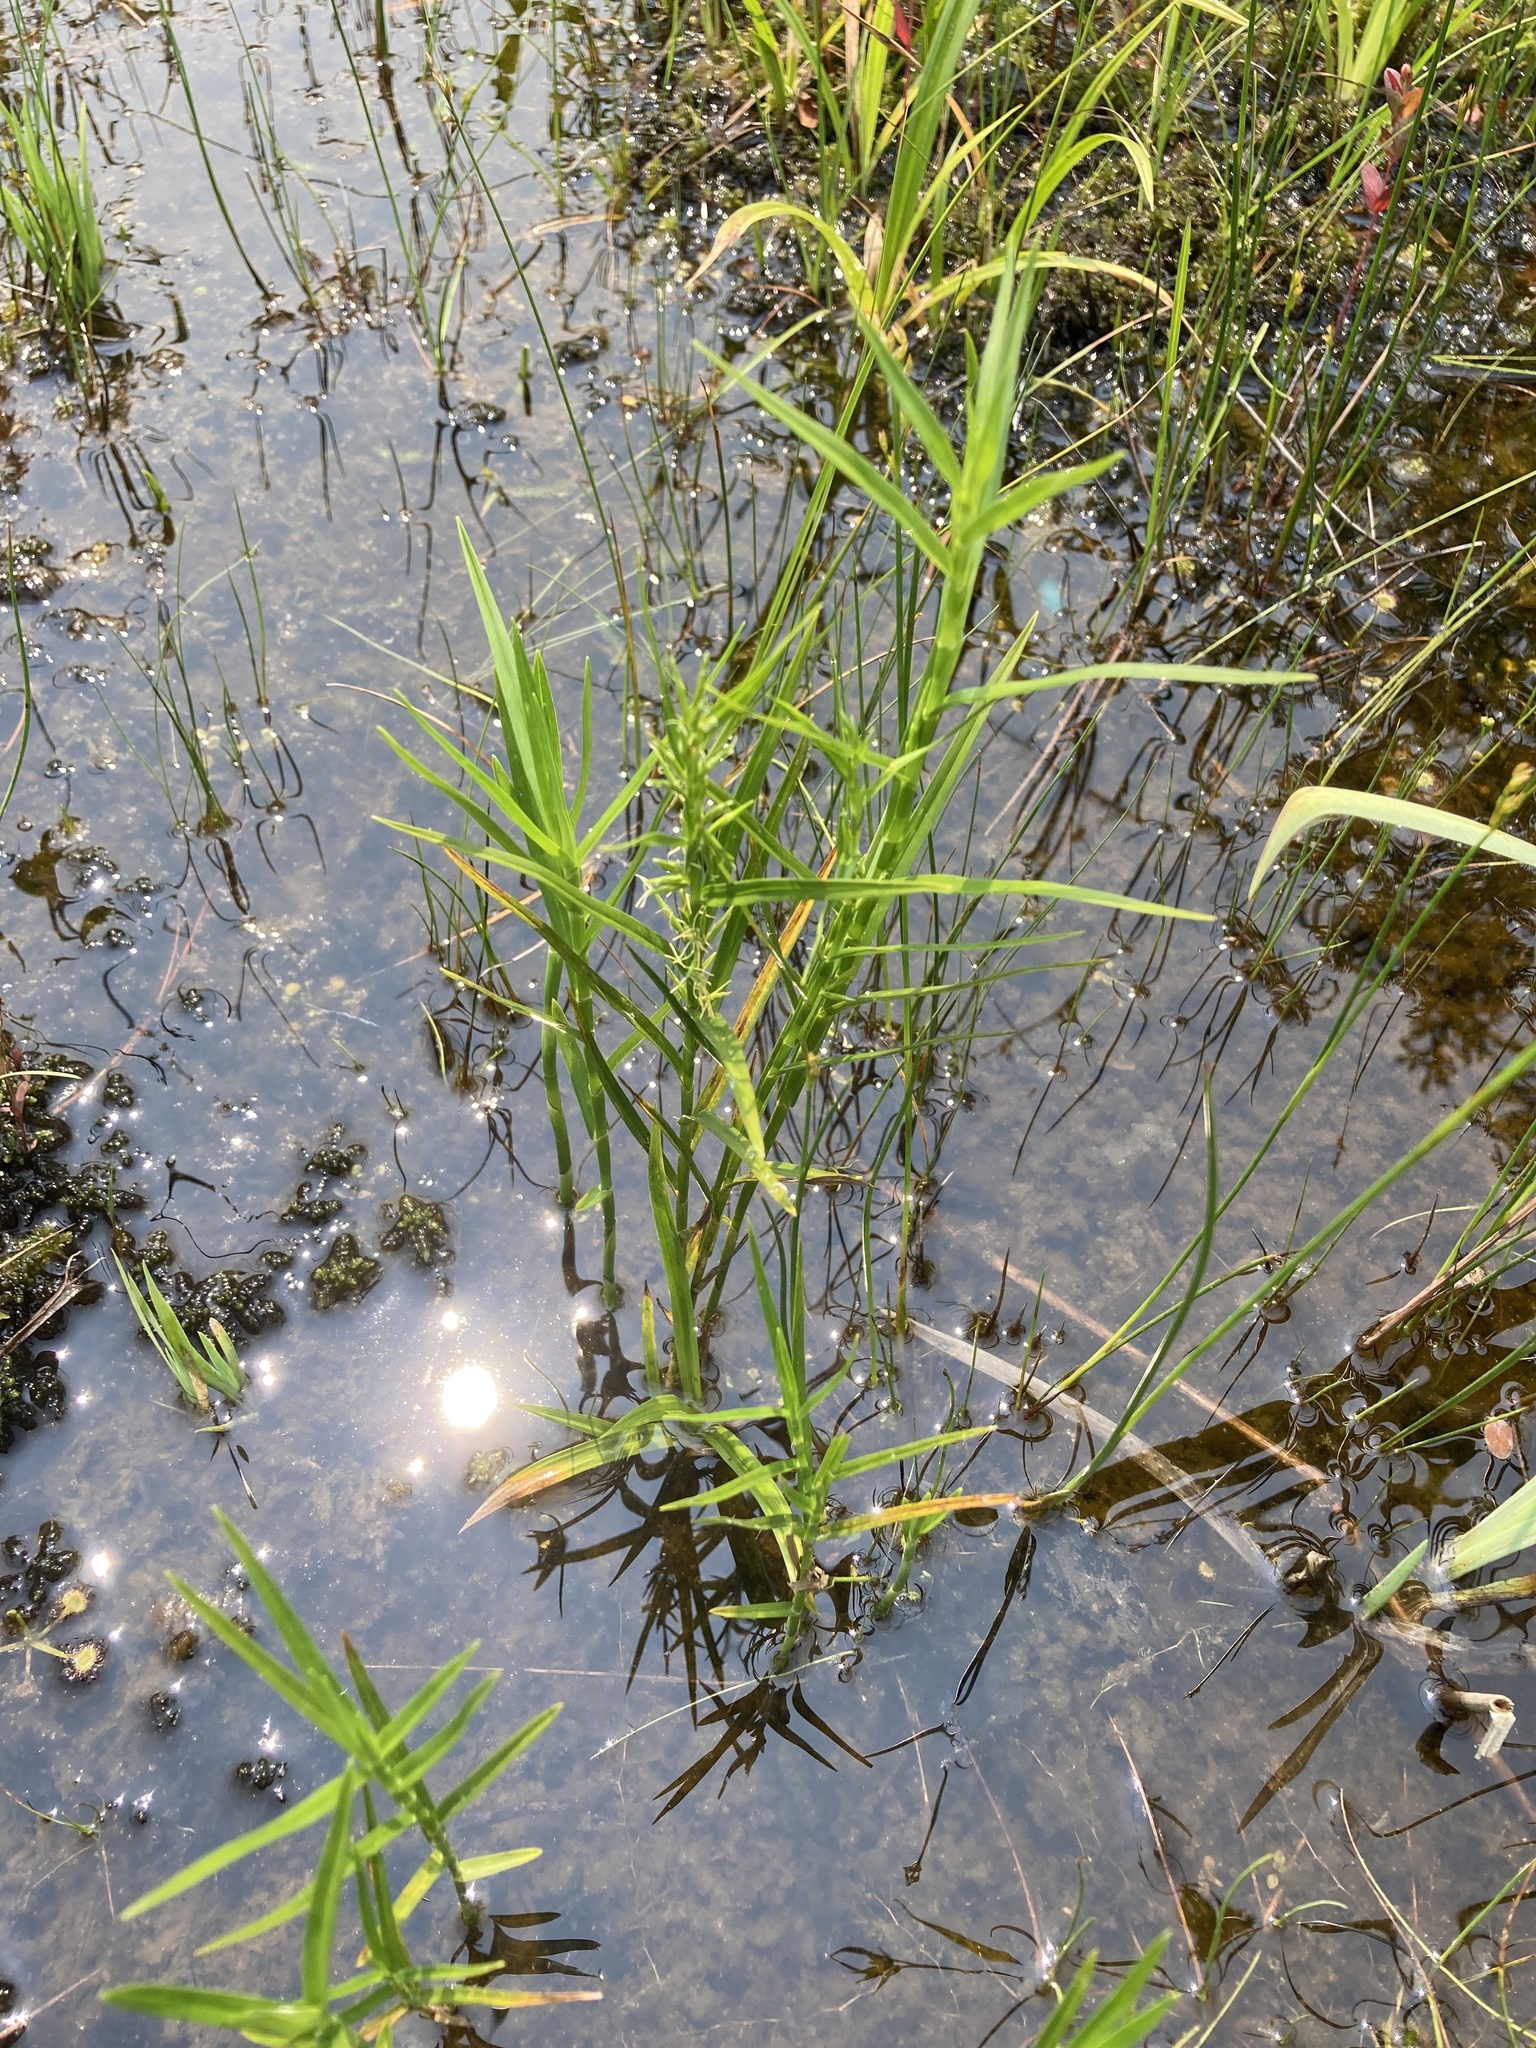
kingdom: Plantae
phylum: Tracheophyta
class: Liliopsida
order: Poales
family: Cyperaceae
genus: Dulichium
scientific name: Dulichium arundinaceum
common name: Three-way sedge
